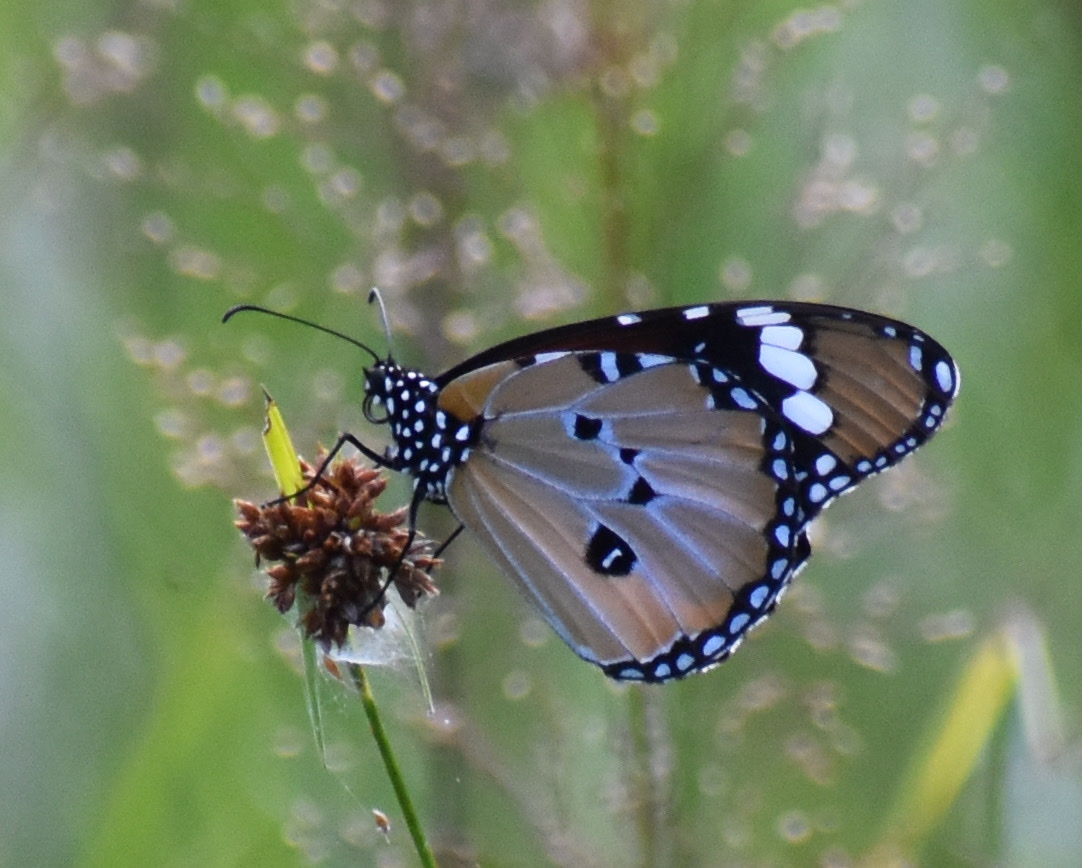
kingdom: Animalia
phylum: Arthropoda
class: Insecta
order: Lepidoptera
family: Nymphalidae
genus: Danaus
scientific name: Danaus chrysippus
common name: Plain tiger
